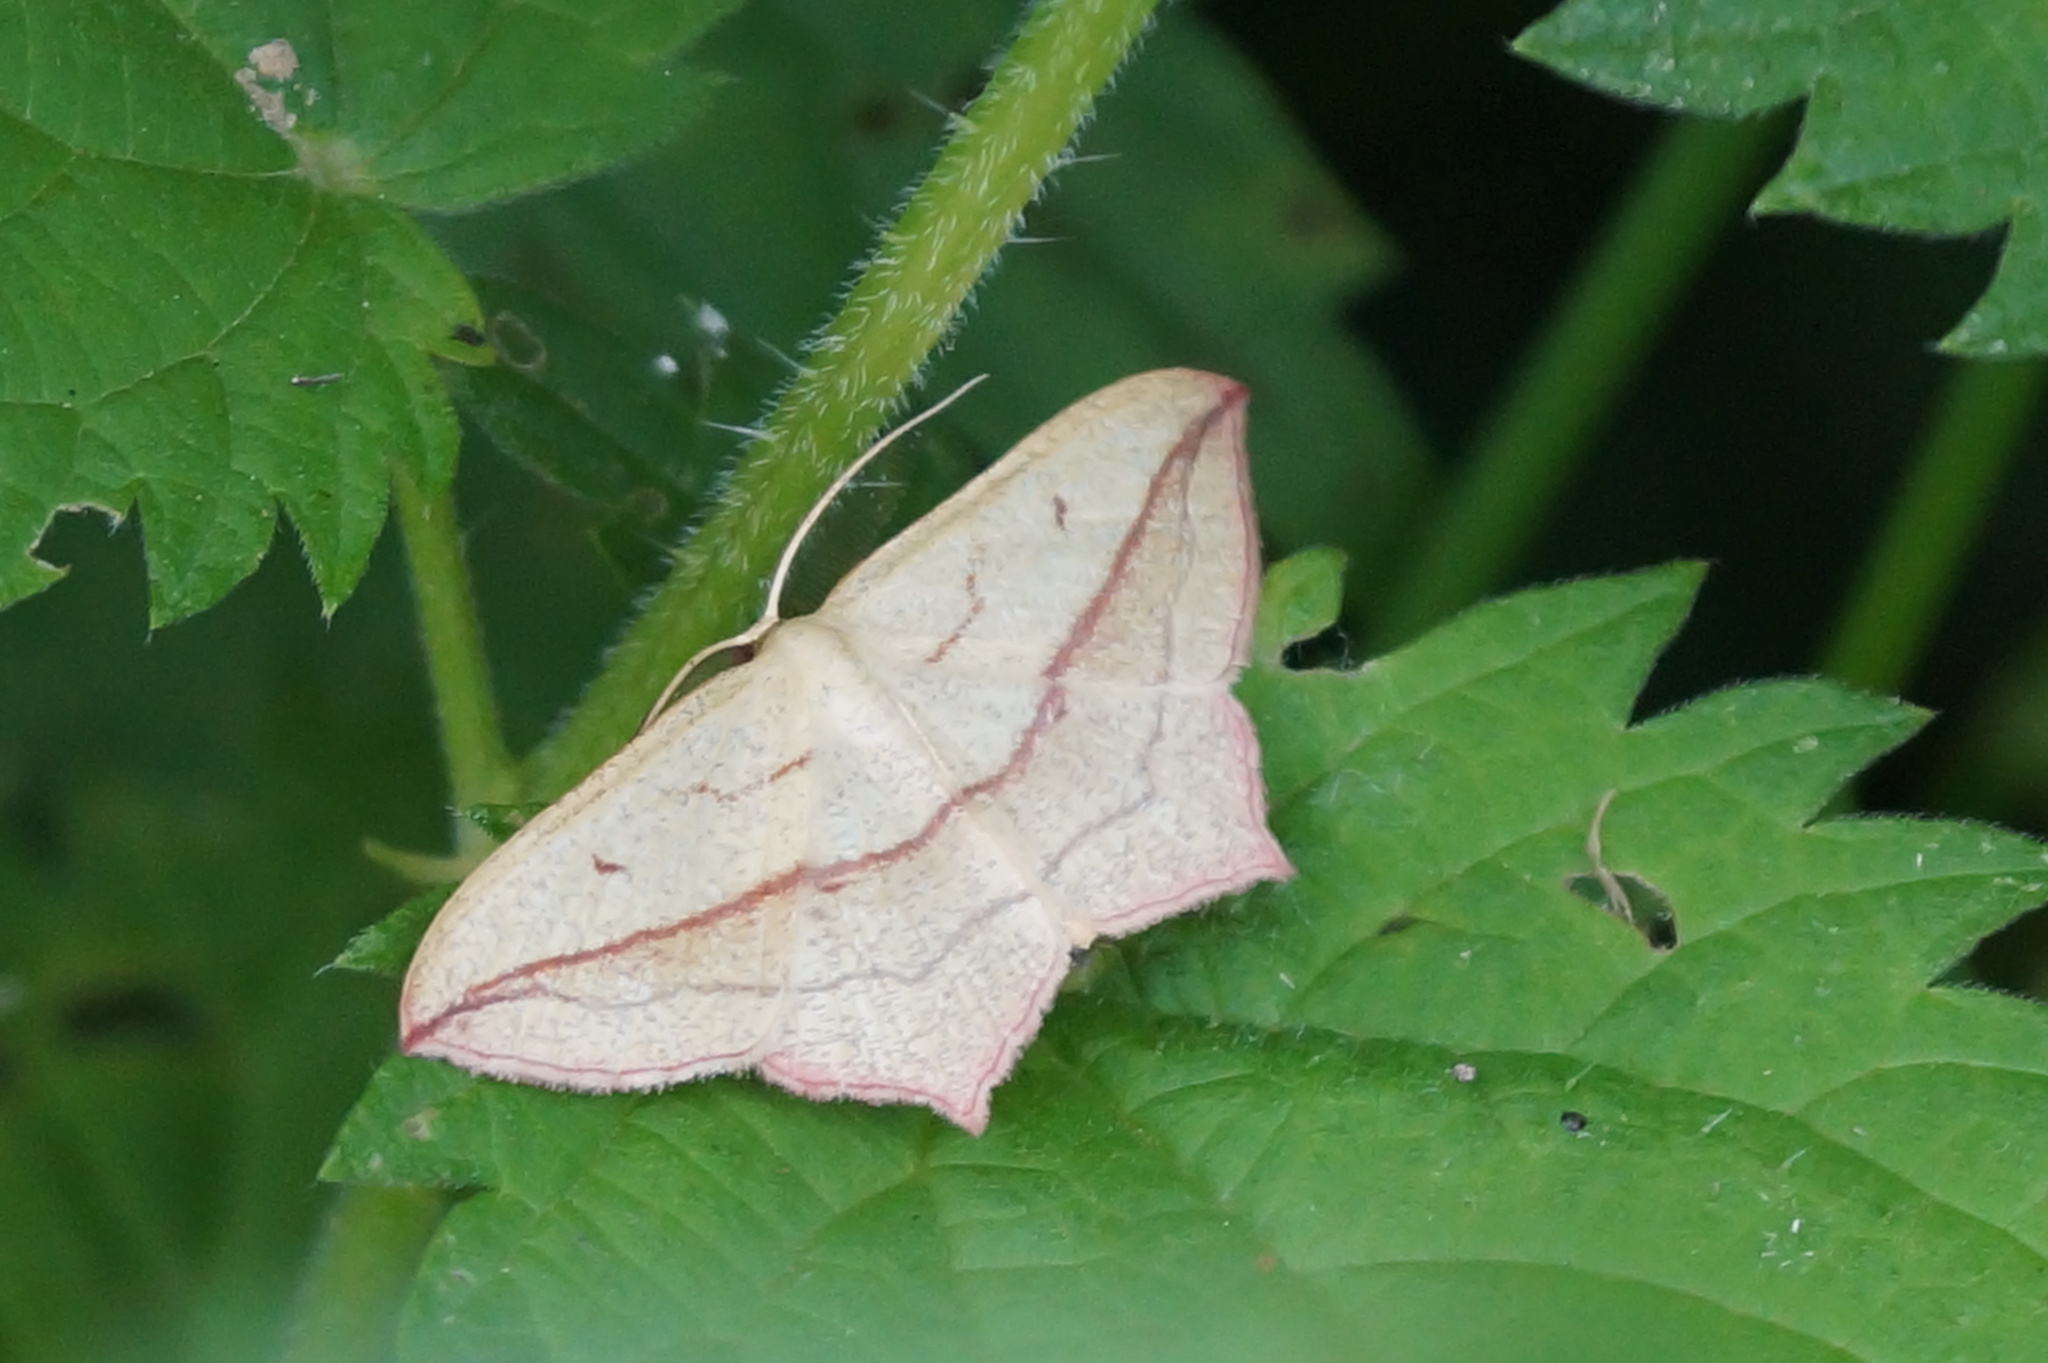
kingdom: Animalia
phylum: Arthropoda
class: Insecta
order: Lepidoptera
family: Geometridae
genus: Timandra
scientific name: Timandra comae
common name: Blood-vein
